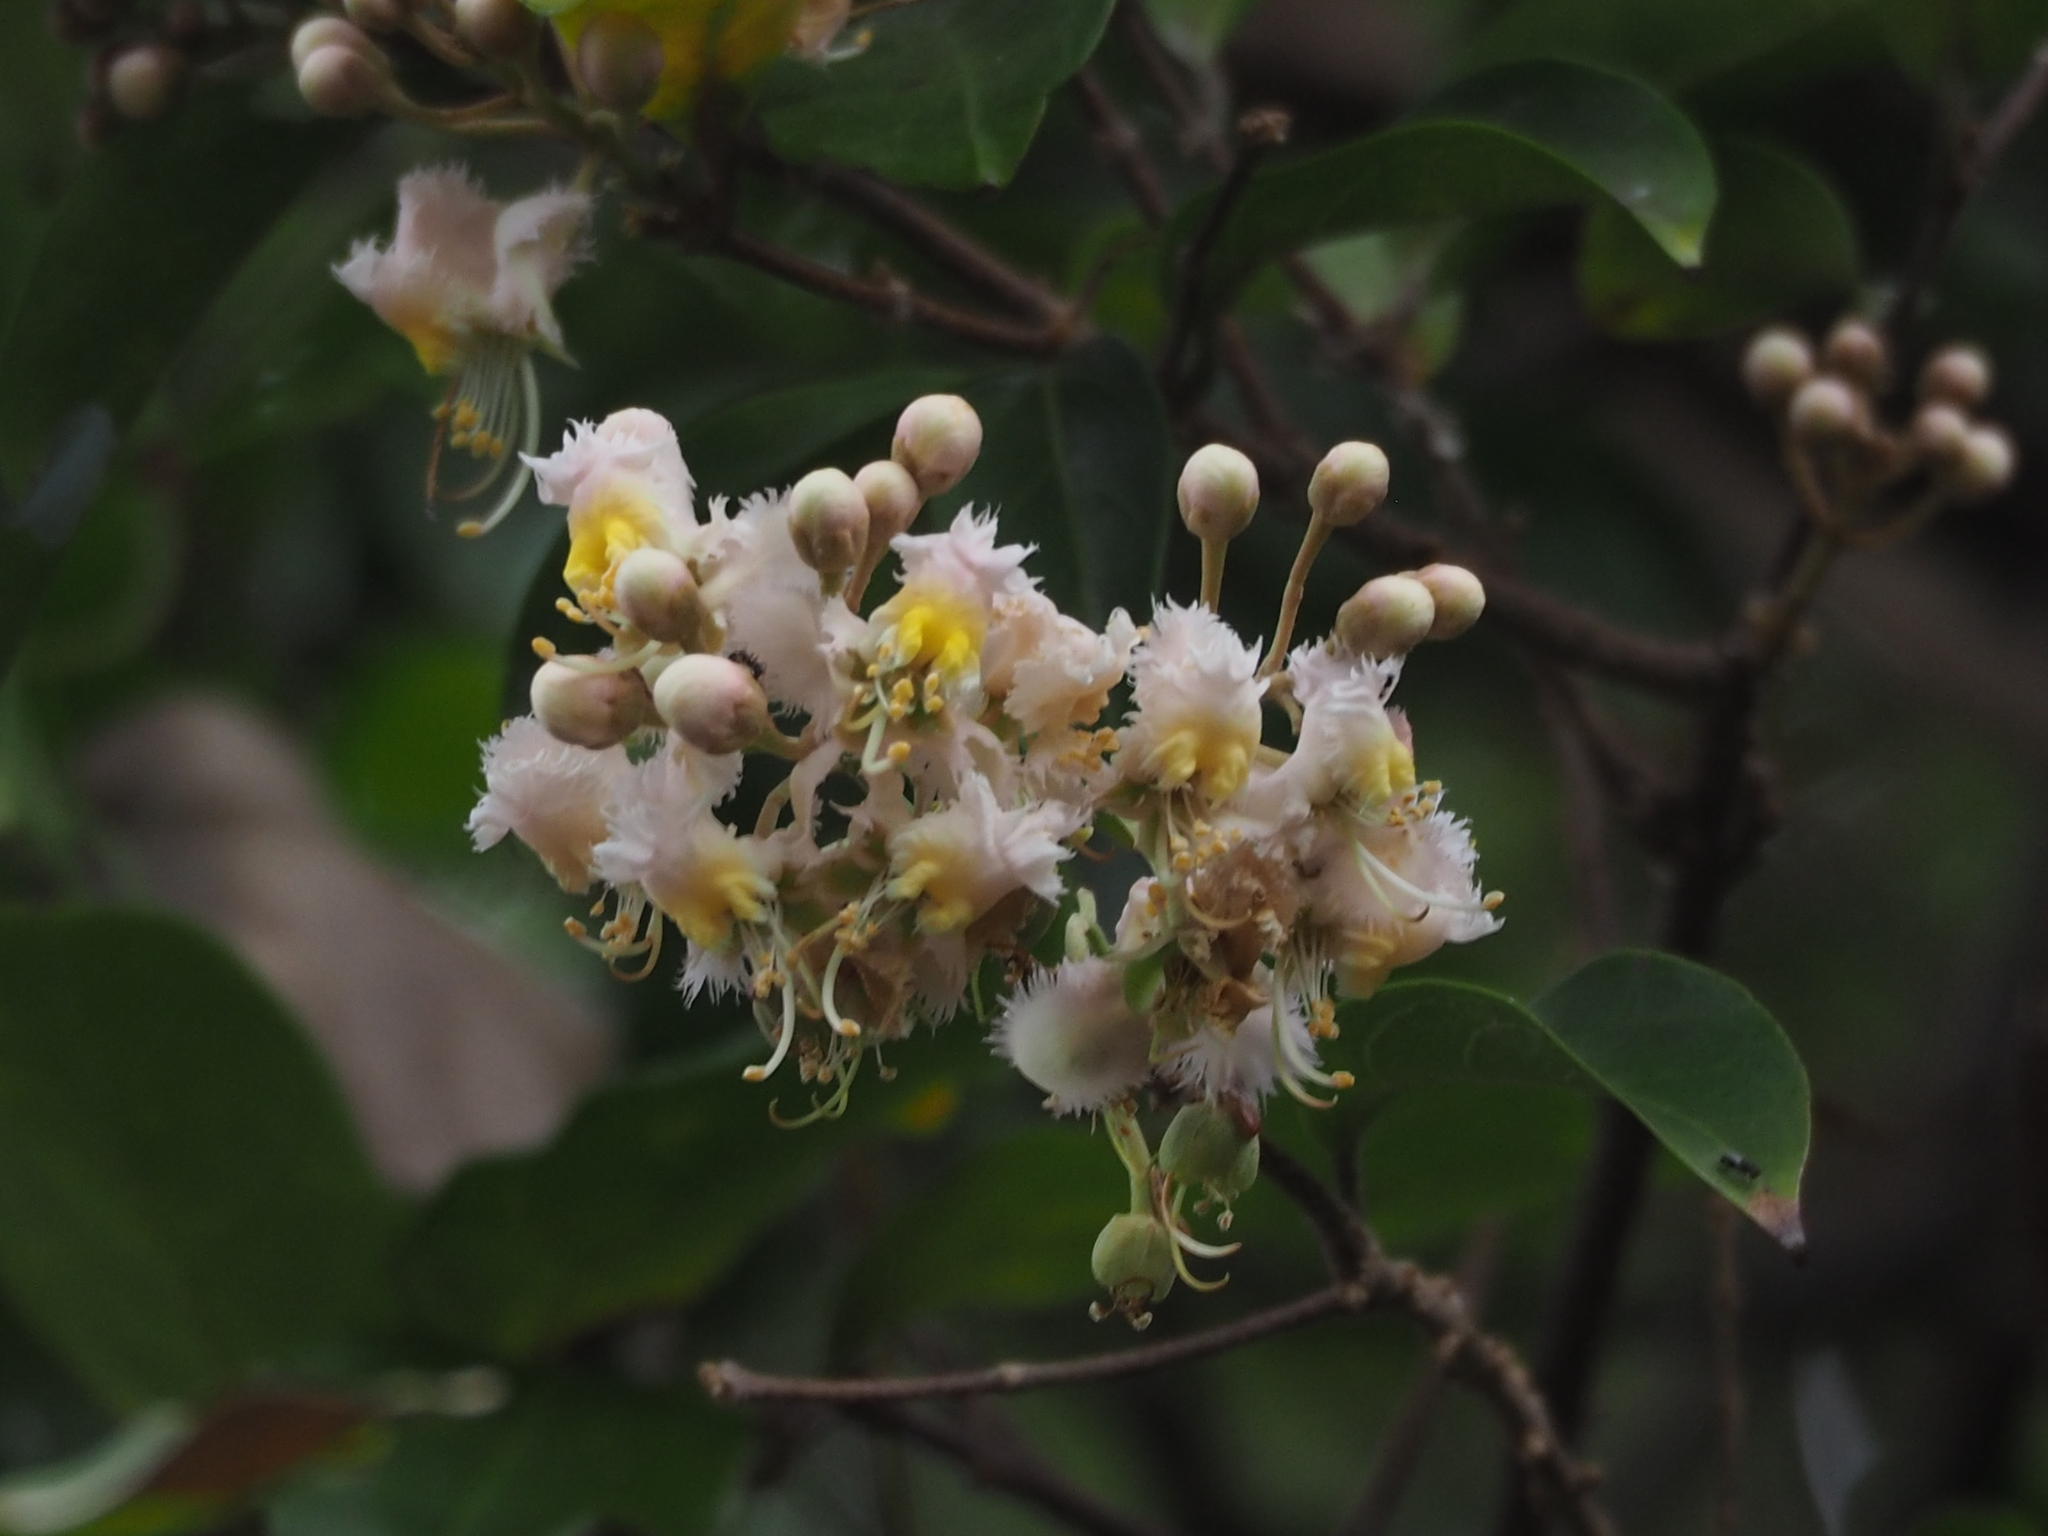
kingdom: Plantae
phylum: Tracheophyta
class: Magnoliopsida
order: Malpighiales
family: Malpighiaceae
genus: Hiptage
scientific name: Hiptage benghalensis
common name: Hiptage
